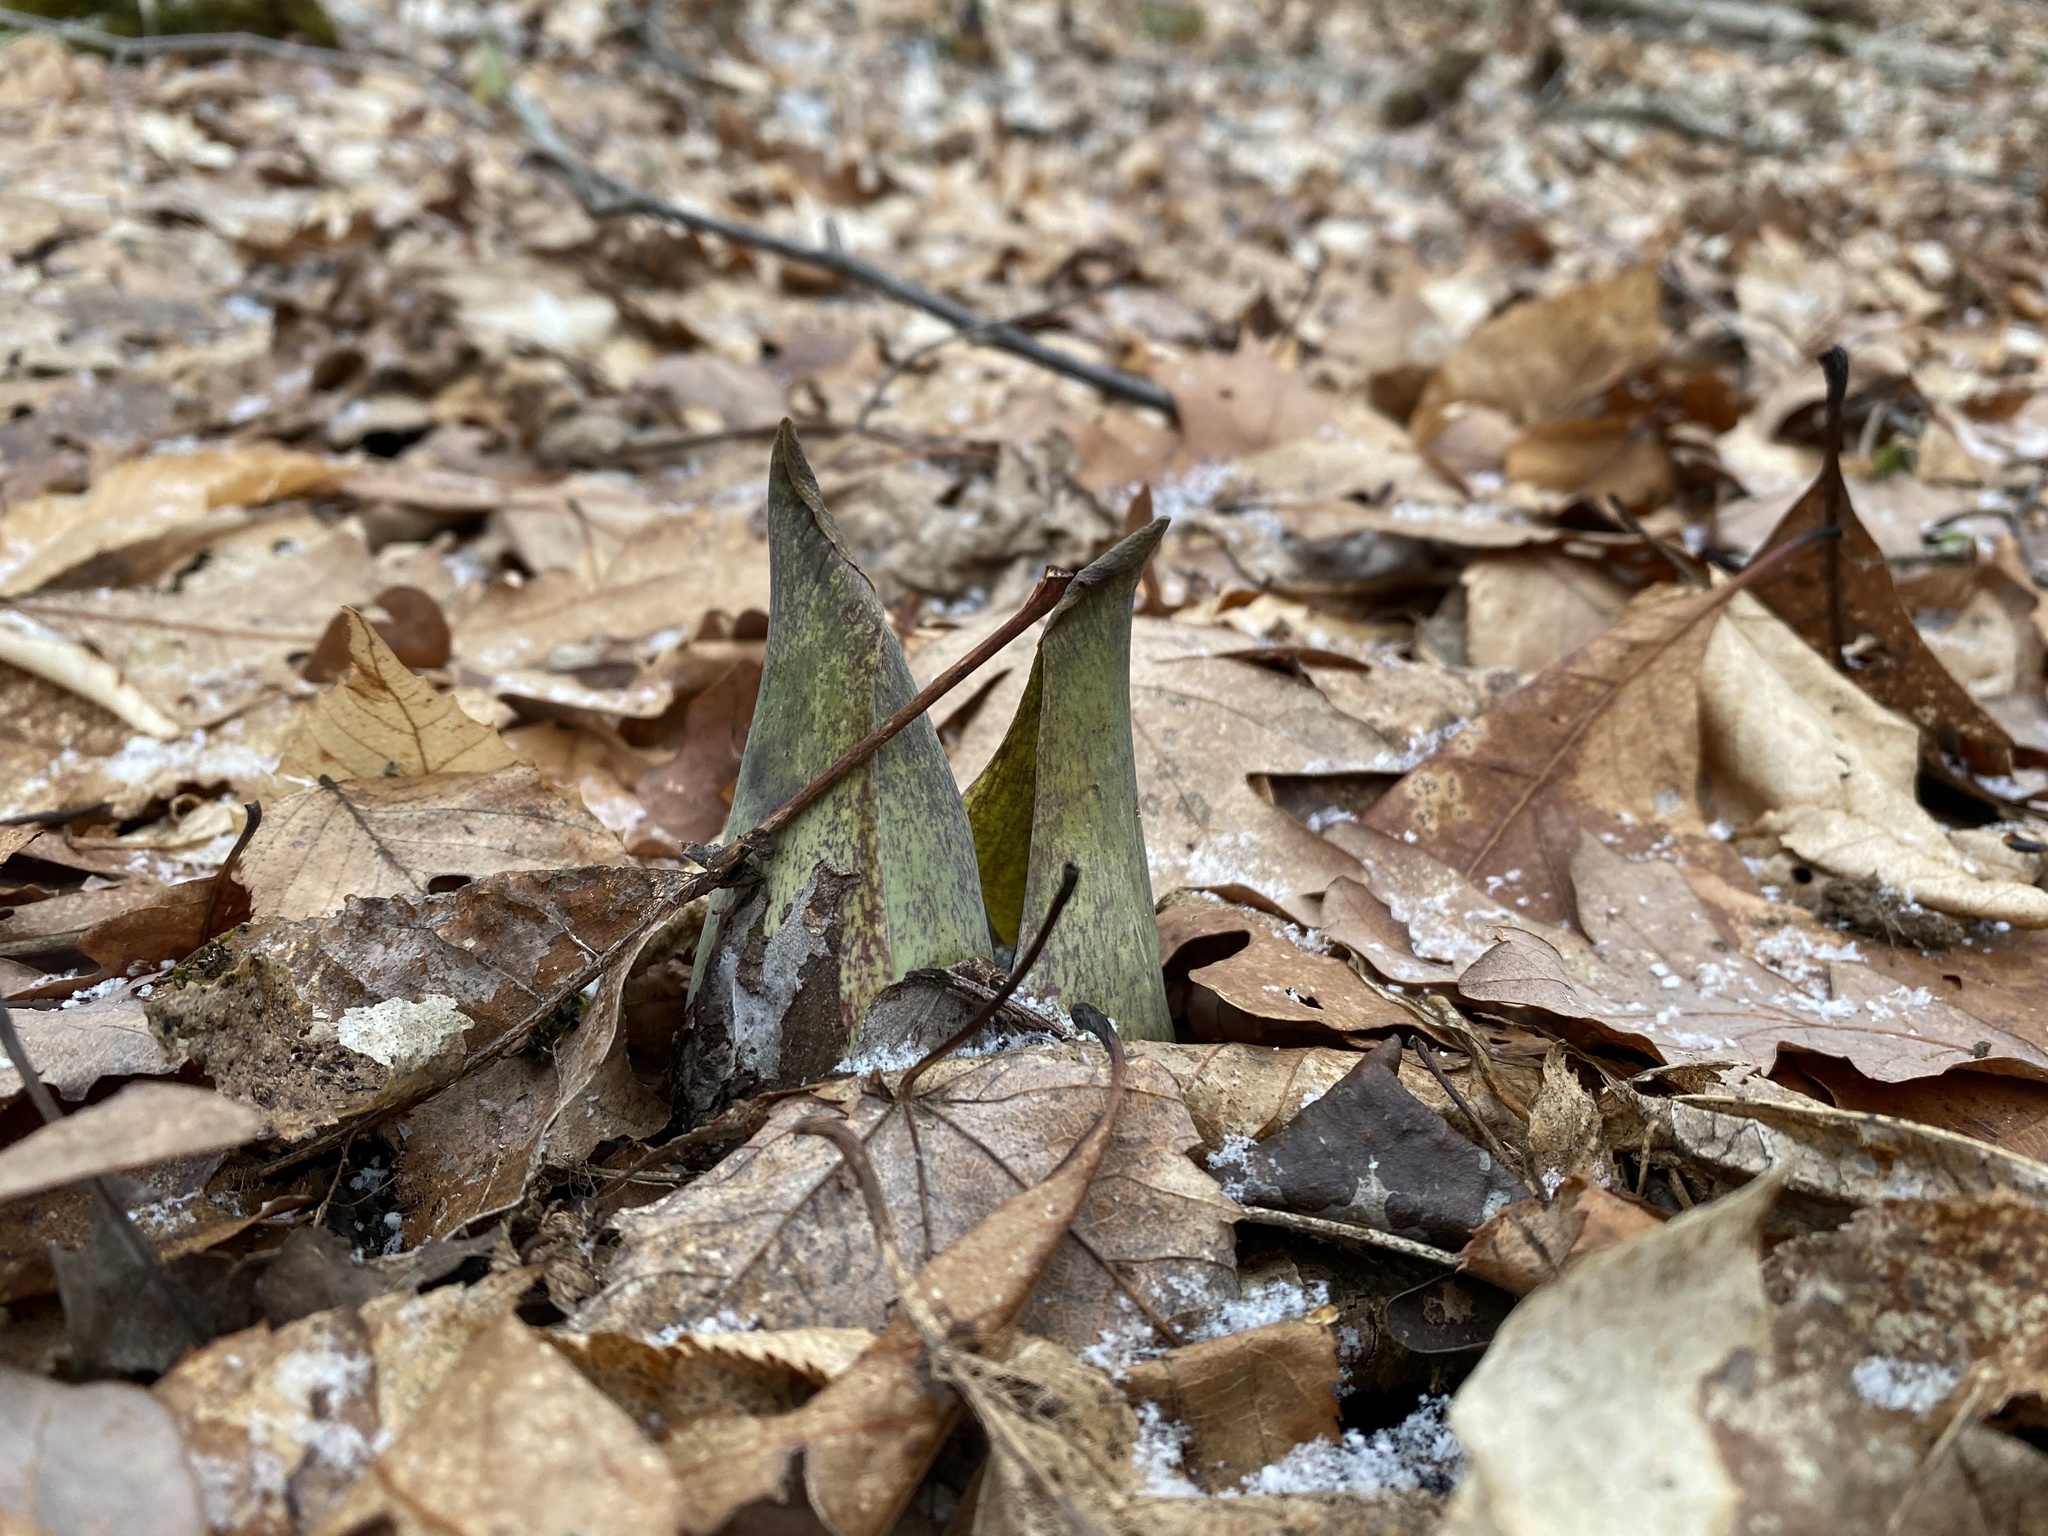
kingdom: Plantae
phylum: Tracheophyta
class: Liliopsida
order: Alismatales
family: Araceae
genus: Symplocarpus
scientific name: Symplocarpus foetidus
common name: Eastern skunk cabbage
